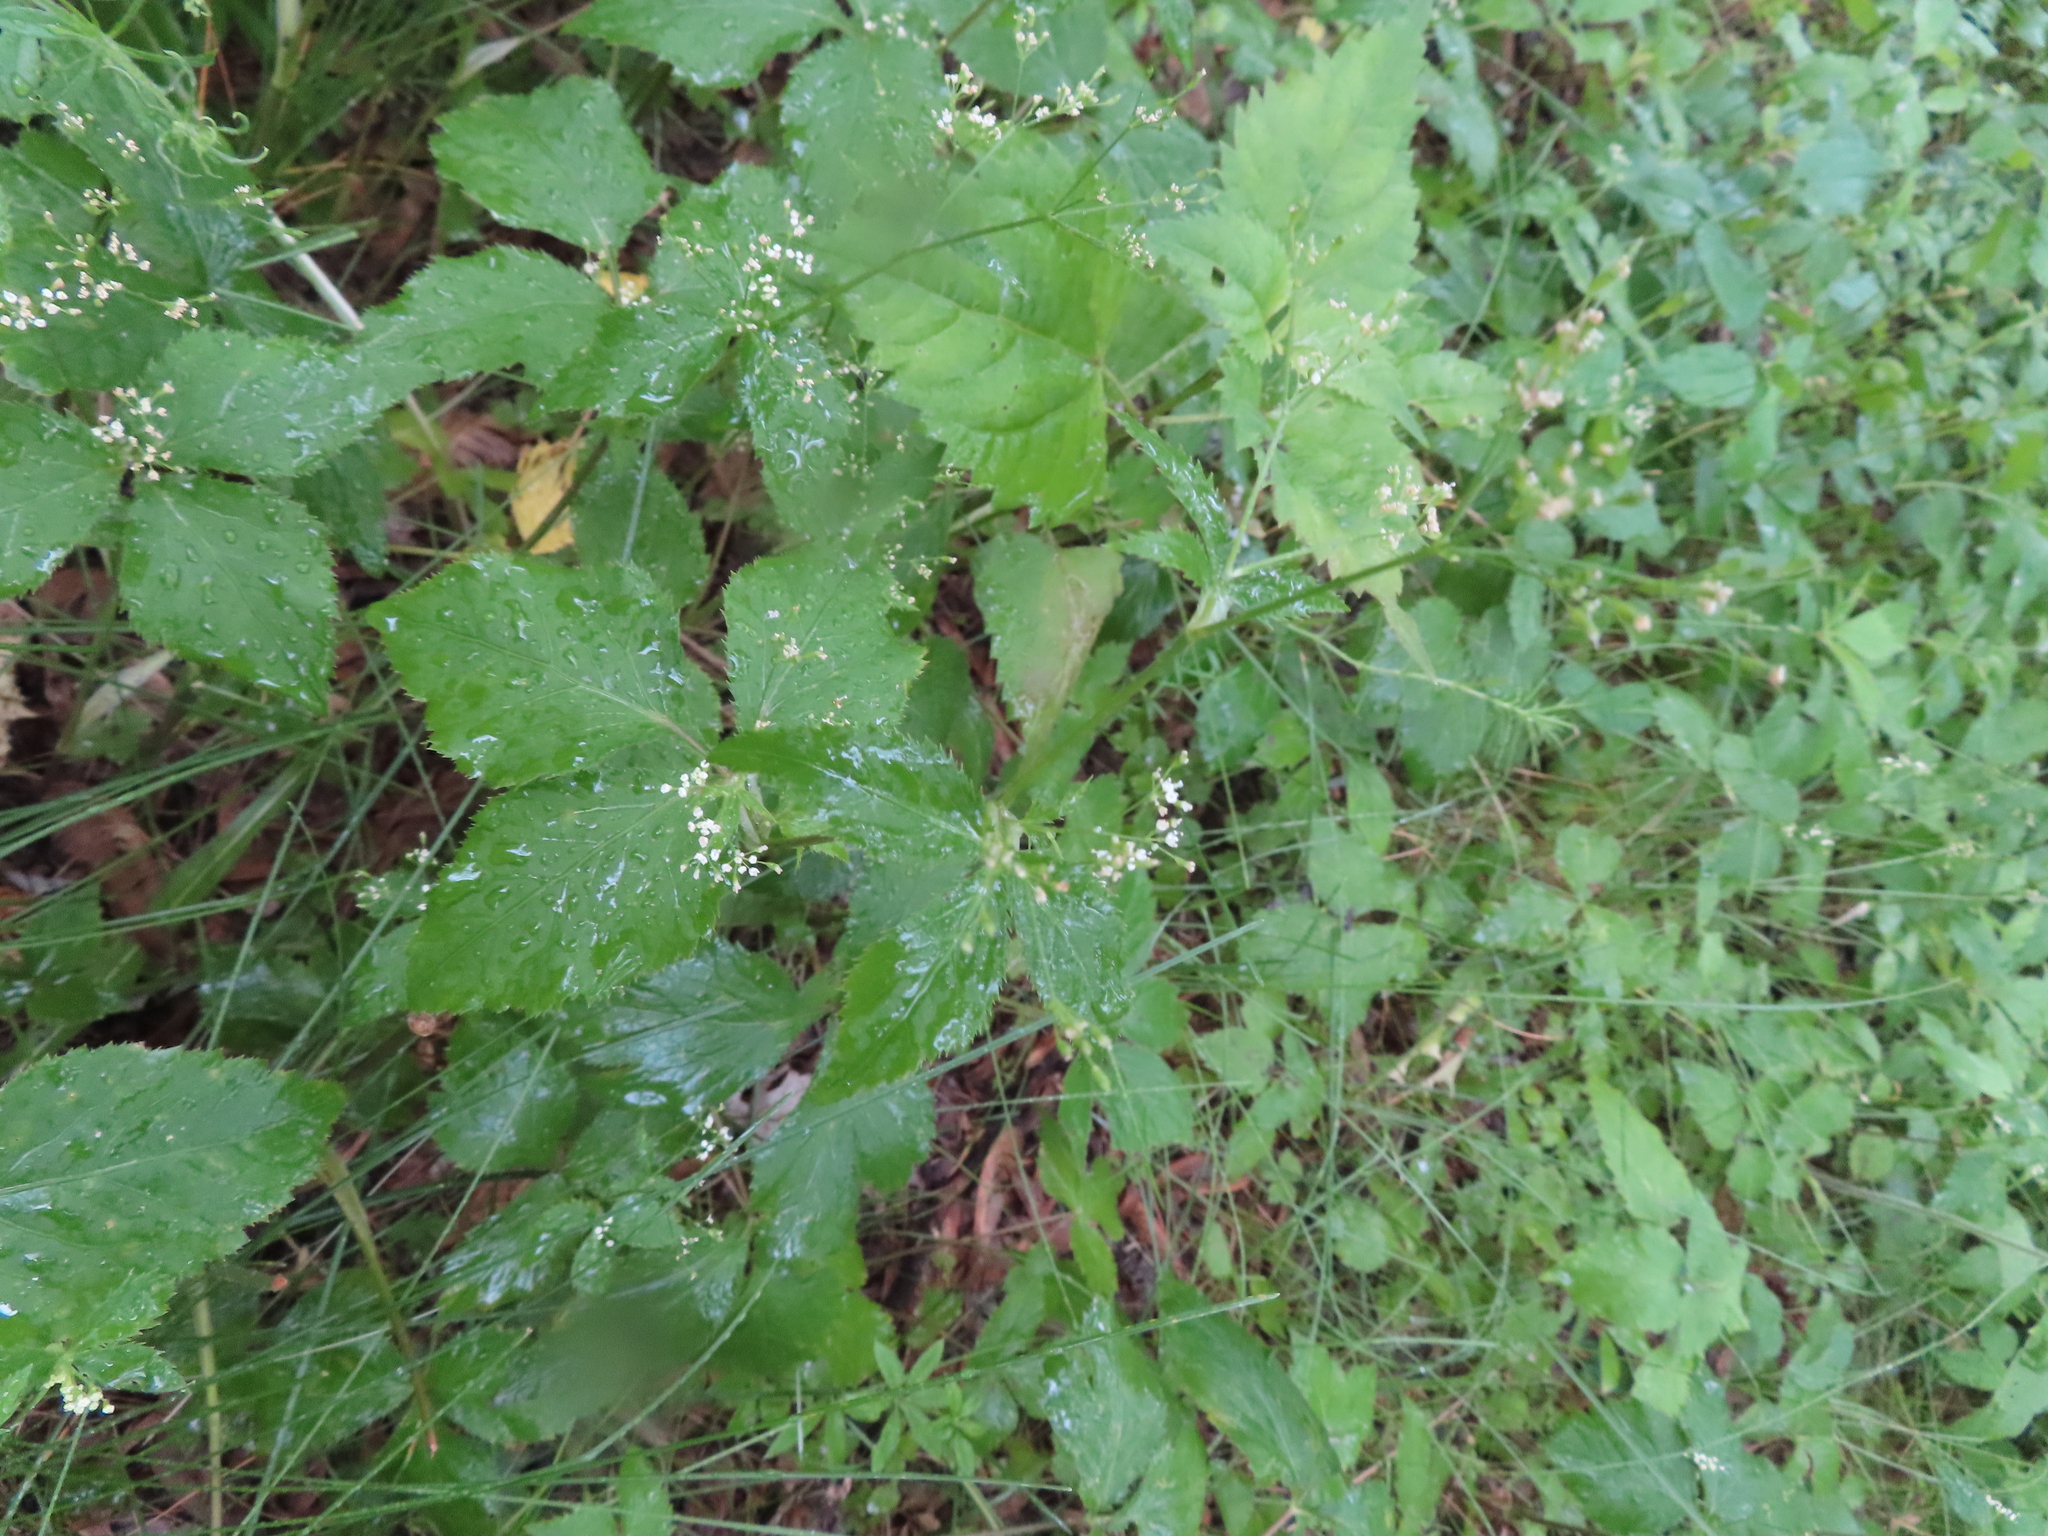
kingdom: Plantae
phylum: Tracheophyta
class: Magnoliopsida
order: Apiales
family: Apiaceae
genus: Cryptotaenia
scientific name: Cryptotaenia canadensis
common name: Honewort
